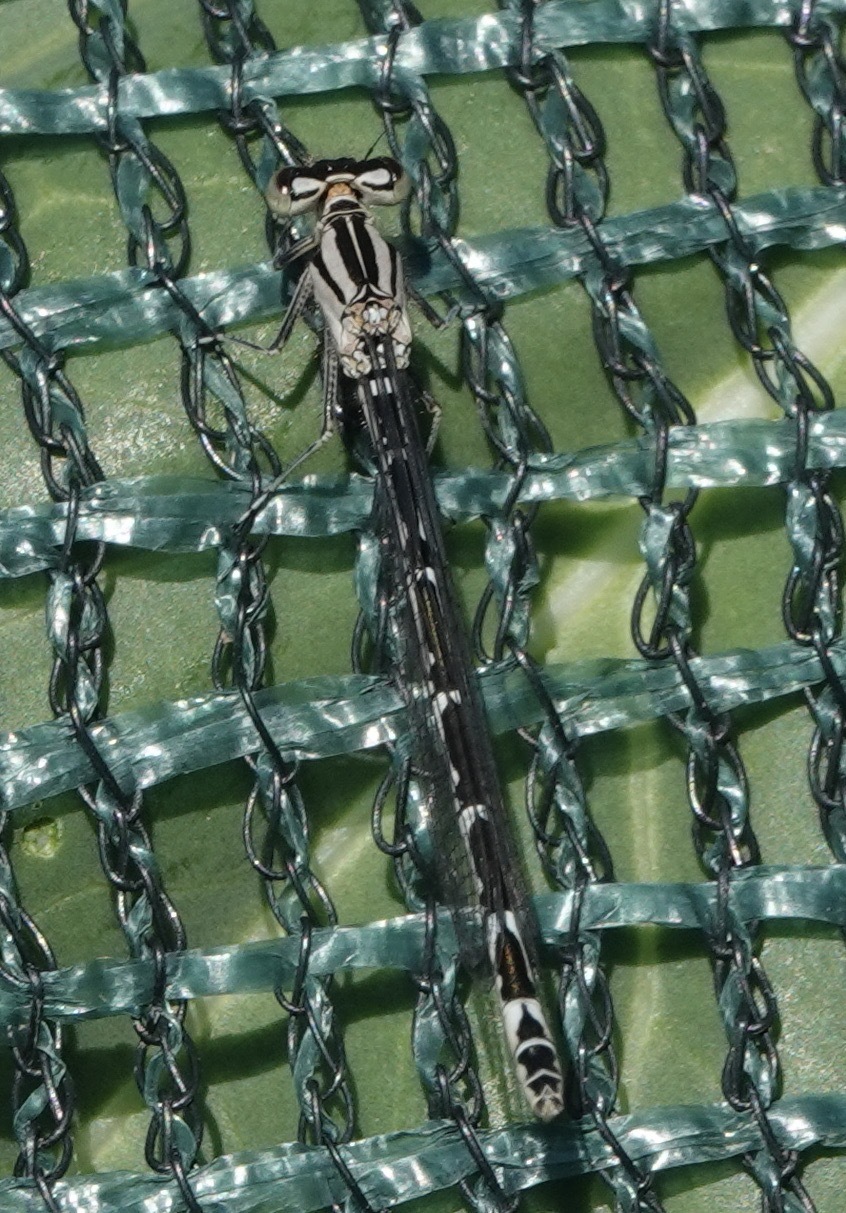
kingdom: Animalia
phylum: Arthropoda
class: Insecta
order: Odonata
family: Coenagrionidae
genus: Enallagma
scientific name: Enallagma cyathigerum
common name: Common blue damselfly
